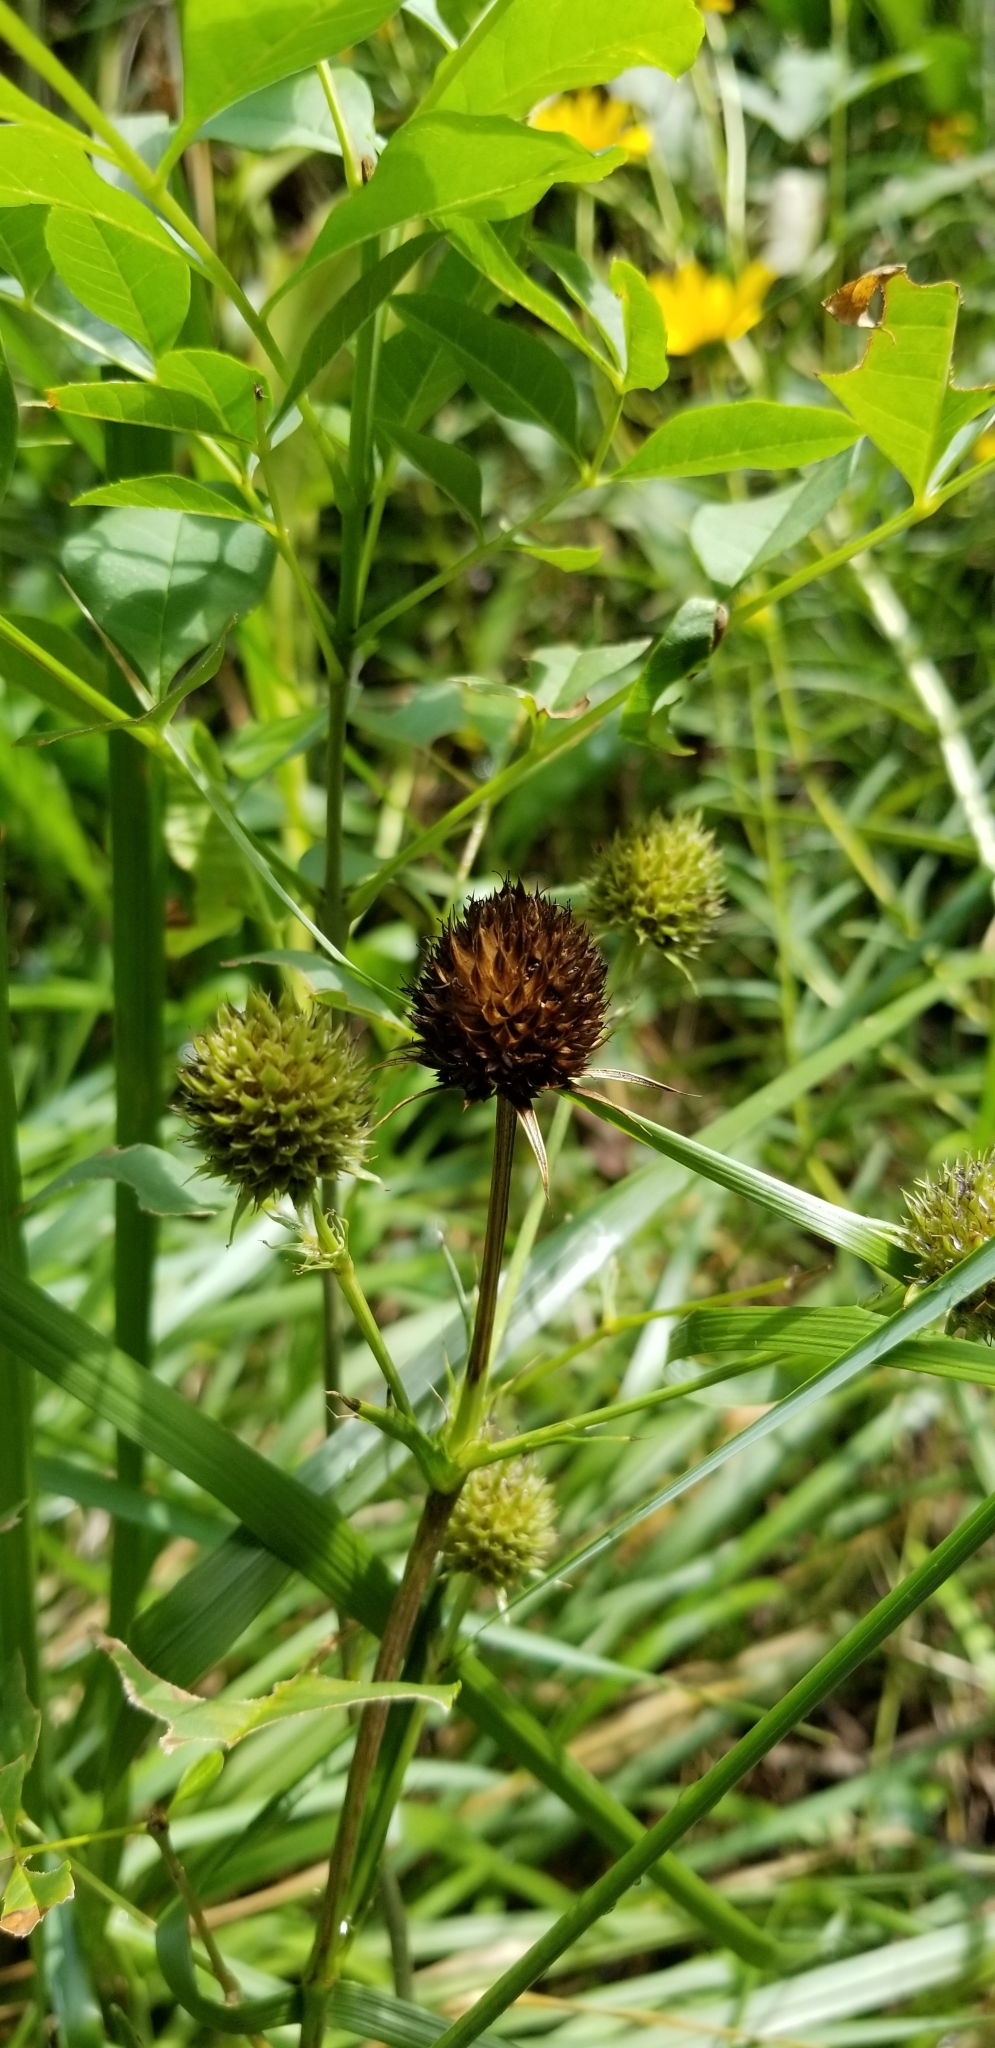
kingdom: Plantae
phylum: Tracheophyta
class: Magnoliopsida
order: Apiales
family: Apiaceae
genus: Eryngium
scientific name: Eryngium yuccifolium
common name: Button eryngo
